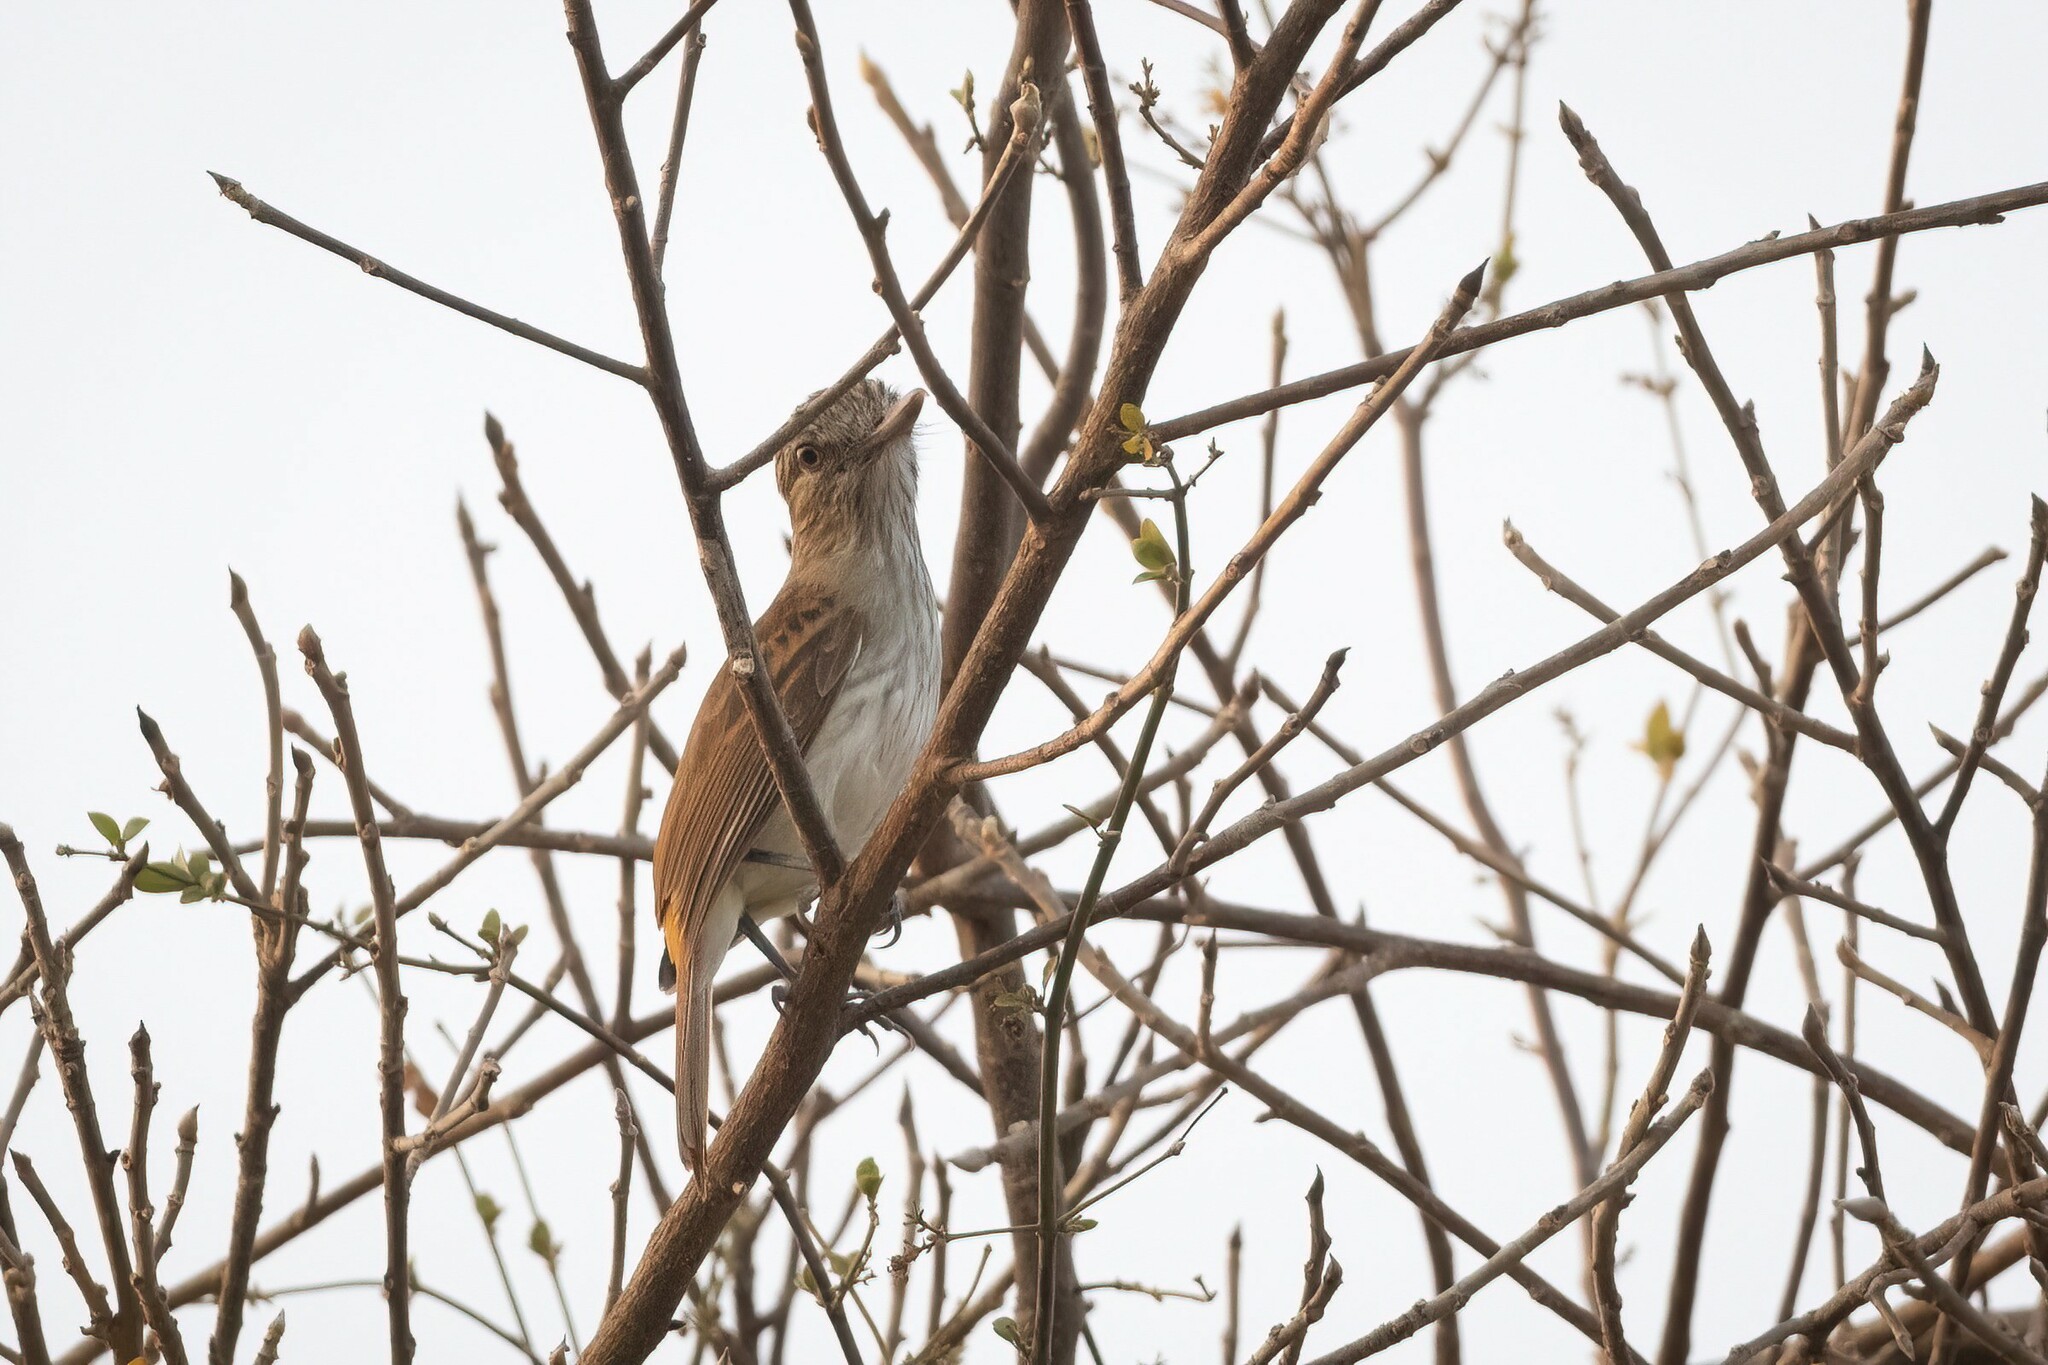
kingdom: Animalia
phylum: Chordata
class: Aves
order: Passeriformes
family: Tyrannidae
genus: Attila
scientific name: Attila spadiceus
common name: Bright-rumped attila
